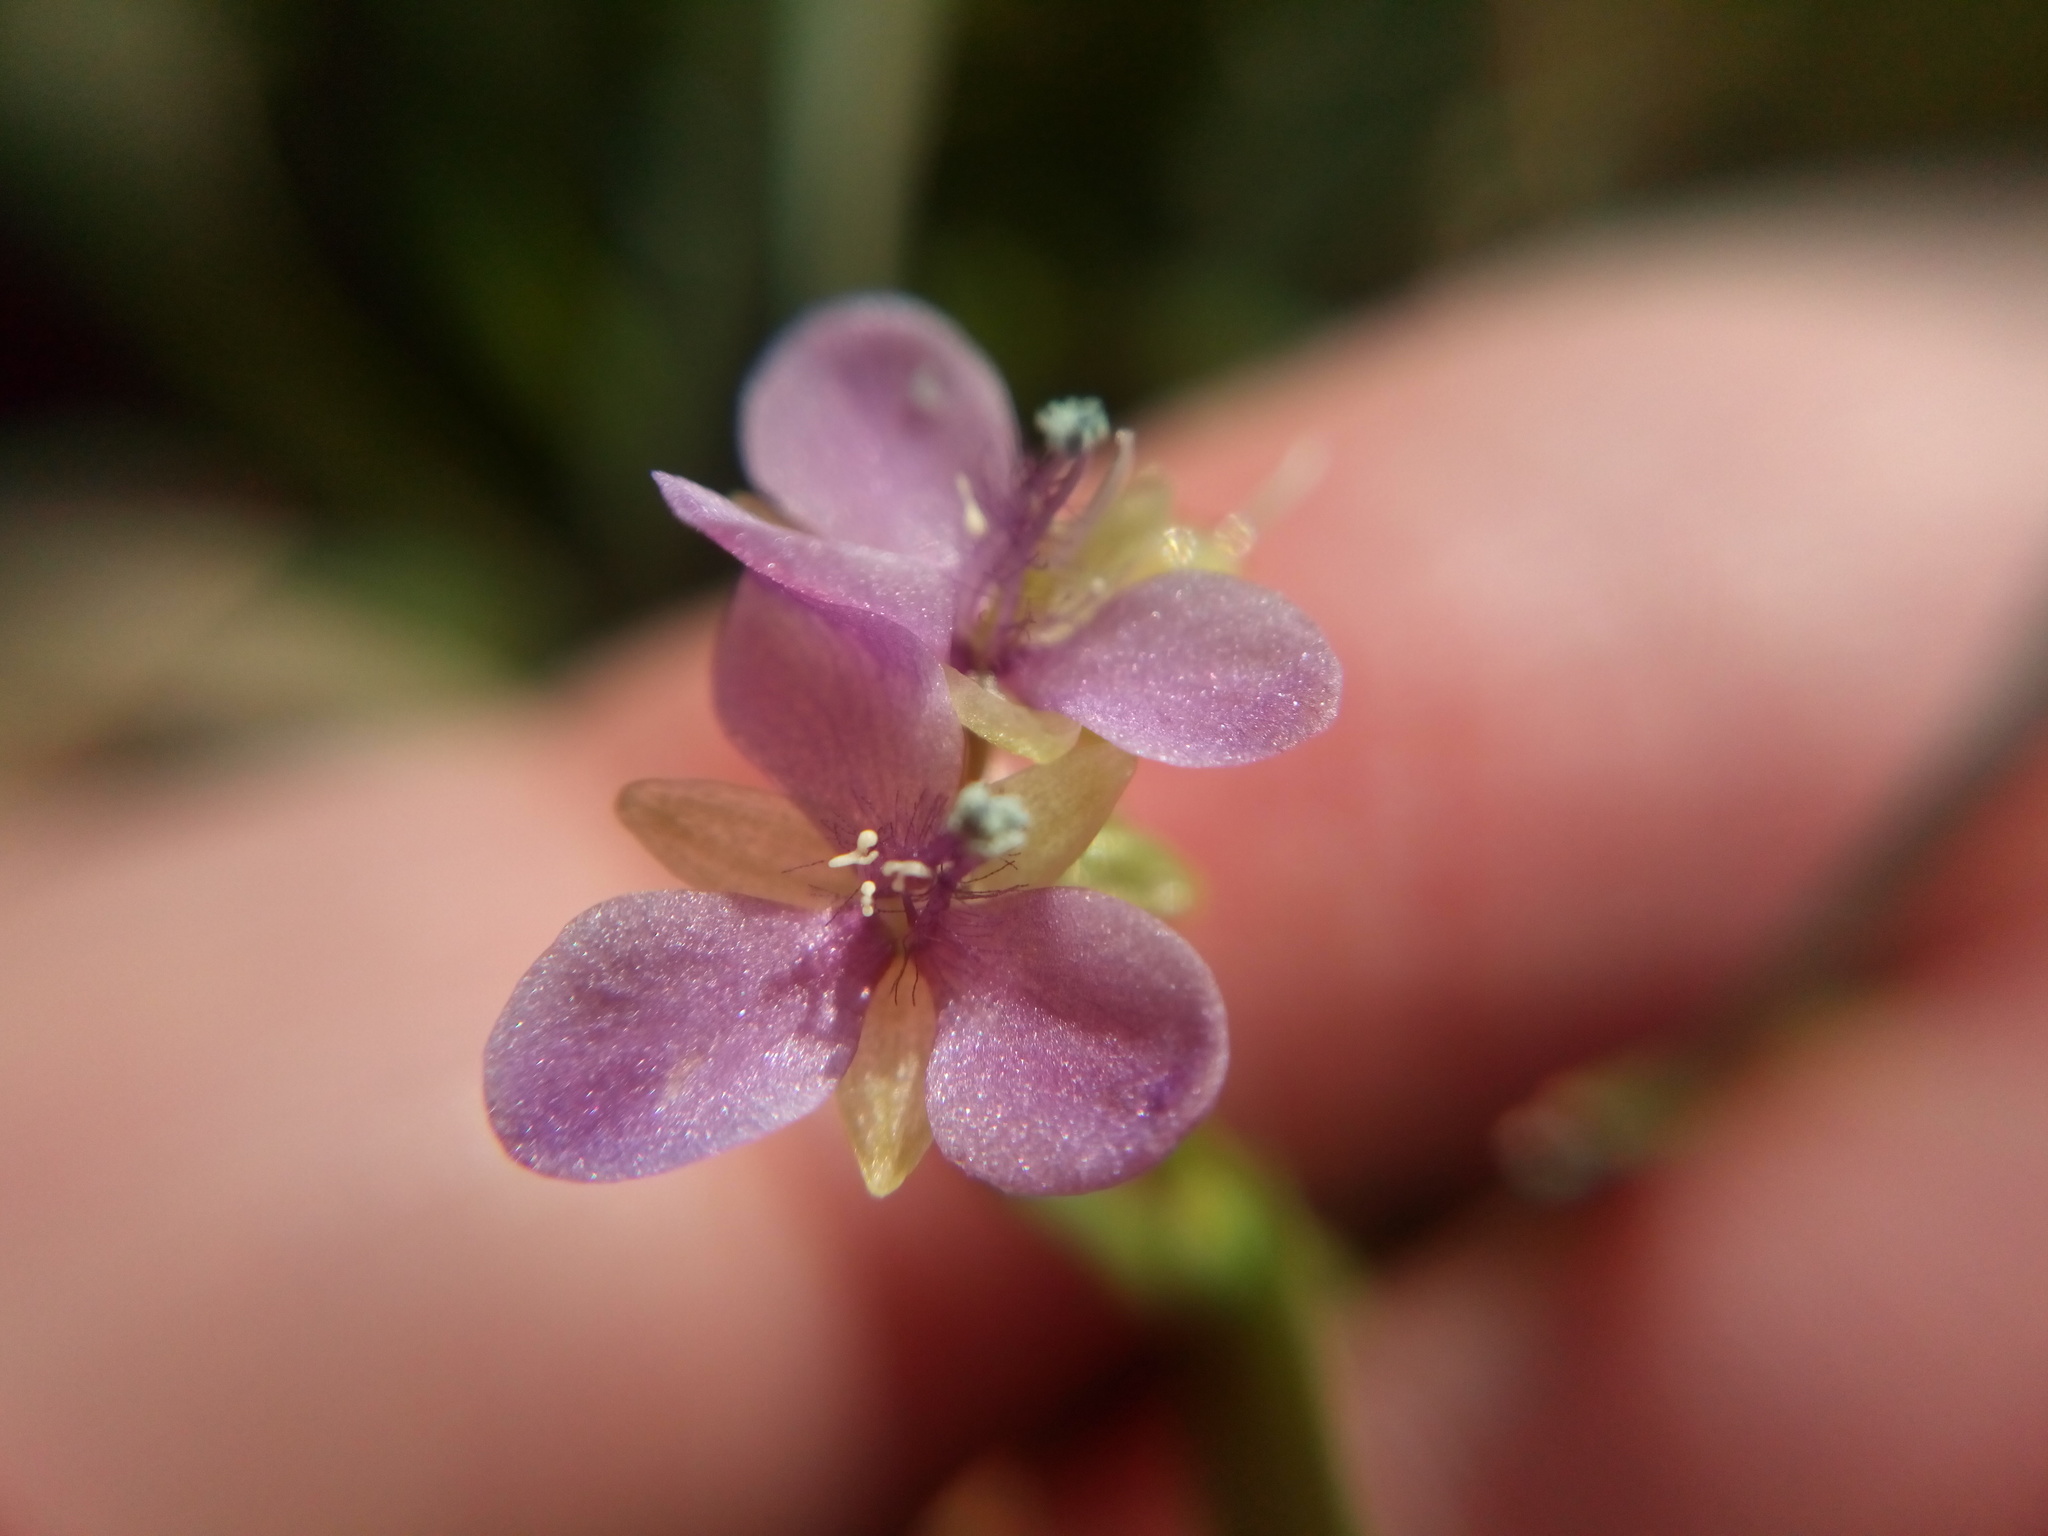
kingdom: Plantae
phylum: Tracheophyta
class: Liliopsida
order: Commelinales
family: Commelinaceae
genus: Murdannia
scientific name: Murdannia nudiflora
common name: Nakedstem dewflower
